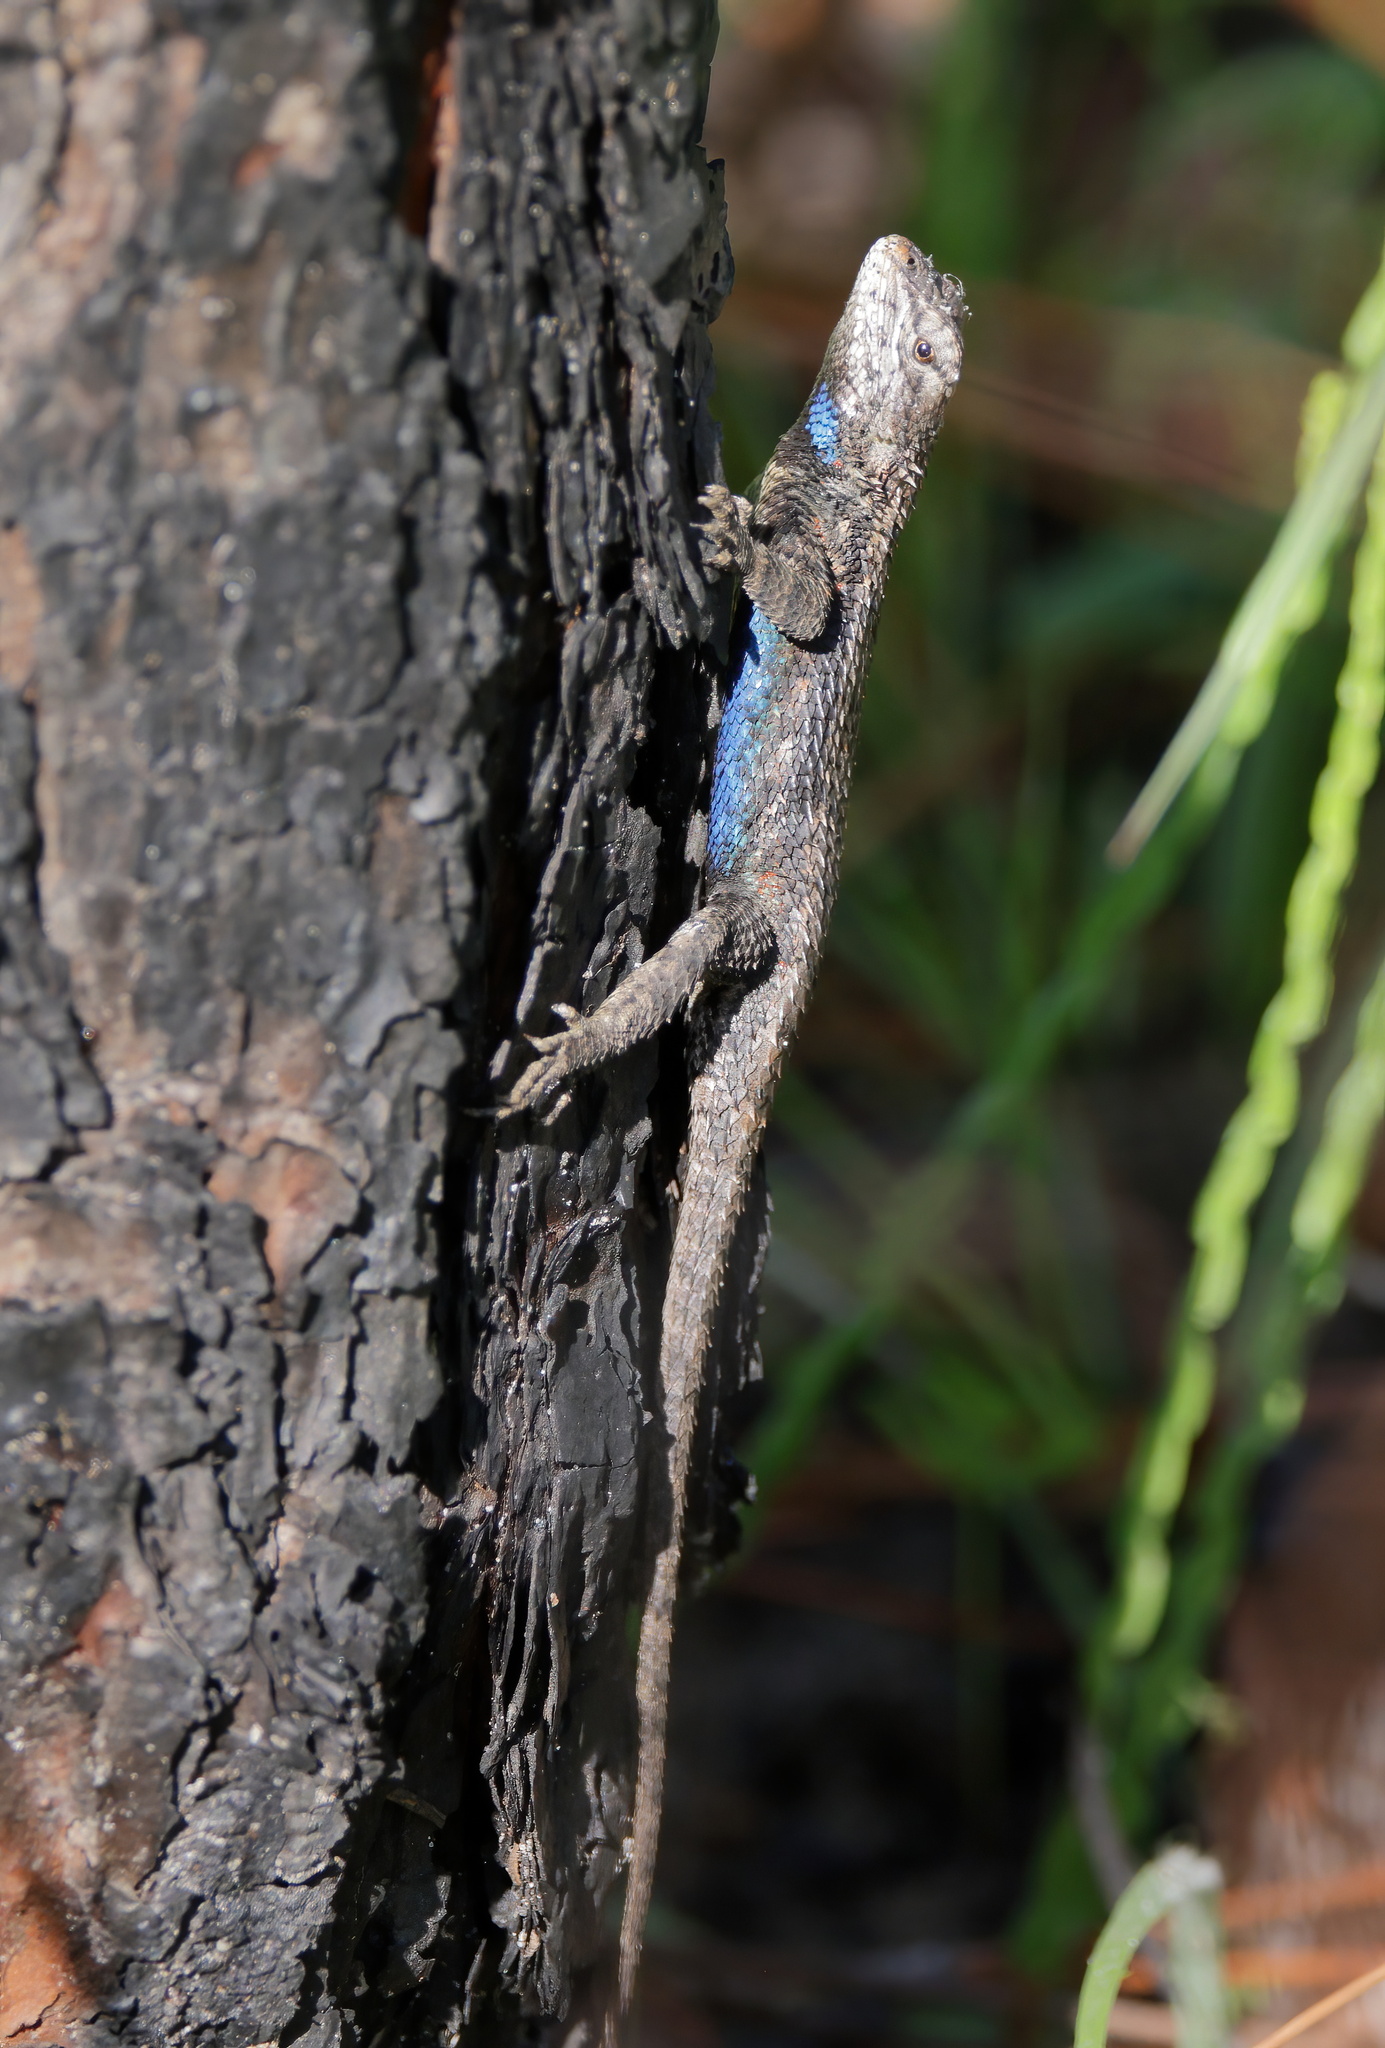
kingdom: Animalia
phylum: Chordata
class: Squamata
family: Phrynosomatidae
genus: Sceloporus
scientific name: Sceloporus undulatus
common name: Eastern fence lizard
